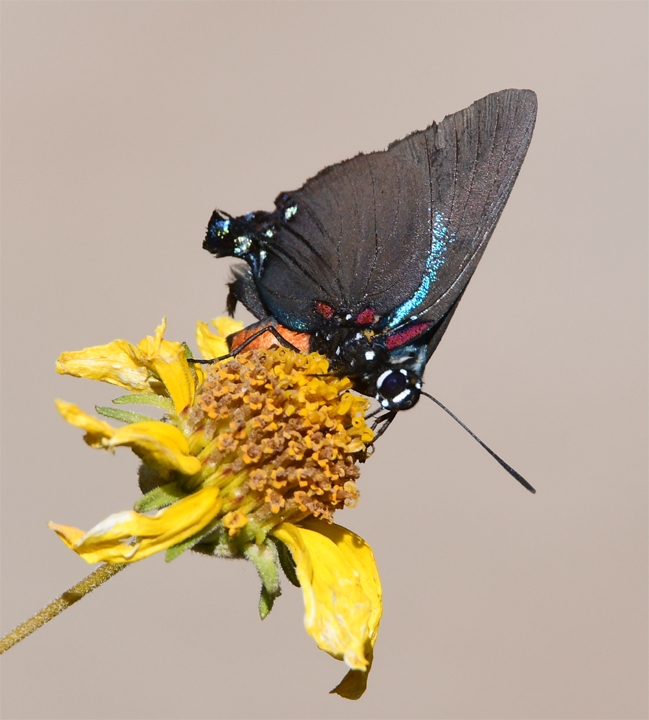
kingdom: Animalia
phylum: Arthropoda
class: Insecta
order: Lepidoptera
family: Lycaenidae
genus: Atlides
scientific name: Atlides halesus
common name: Great purple hairstreak
